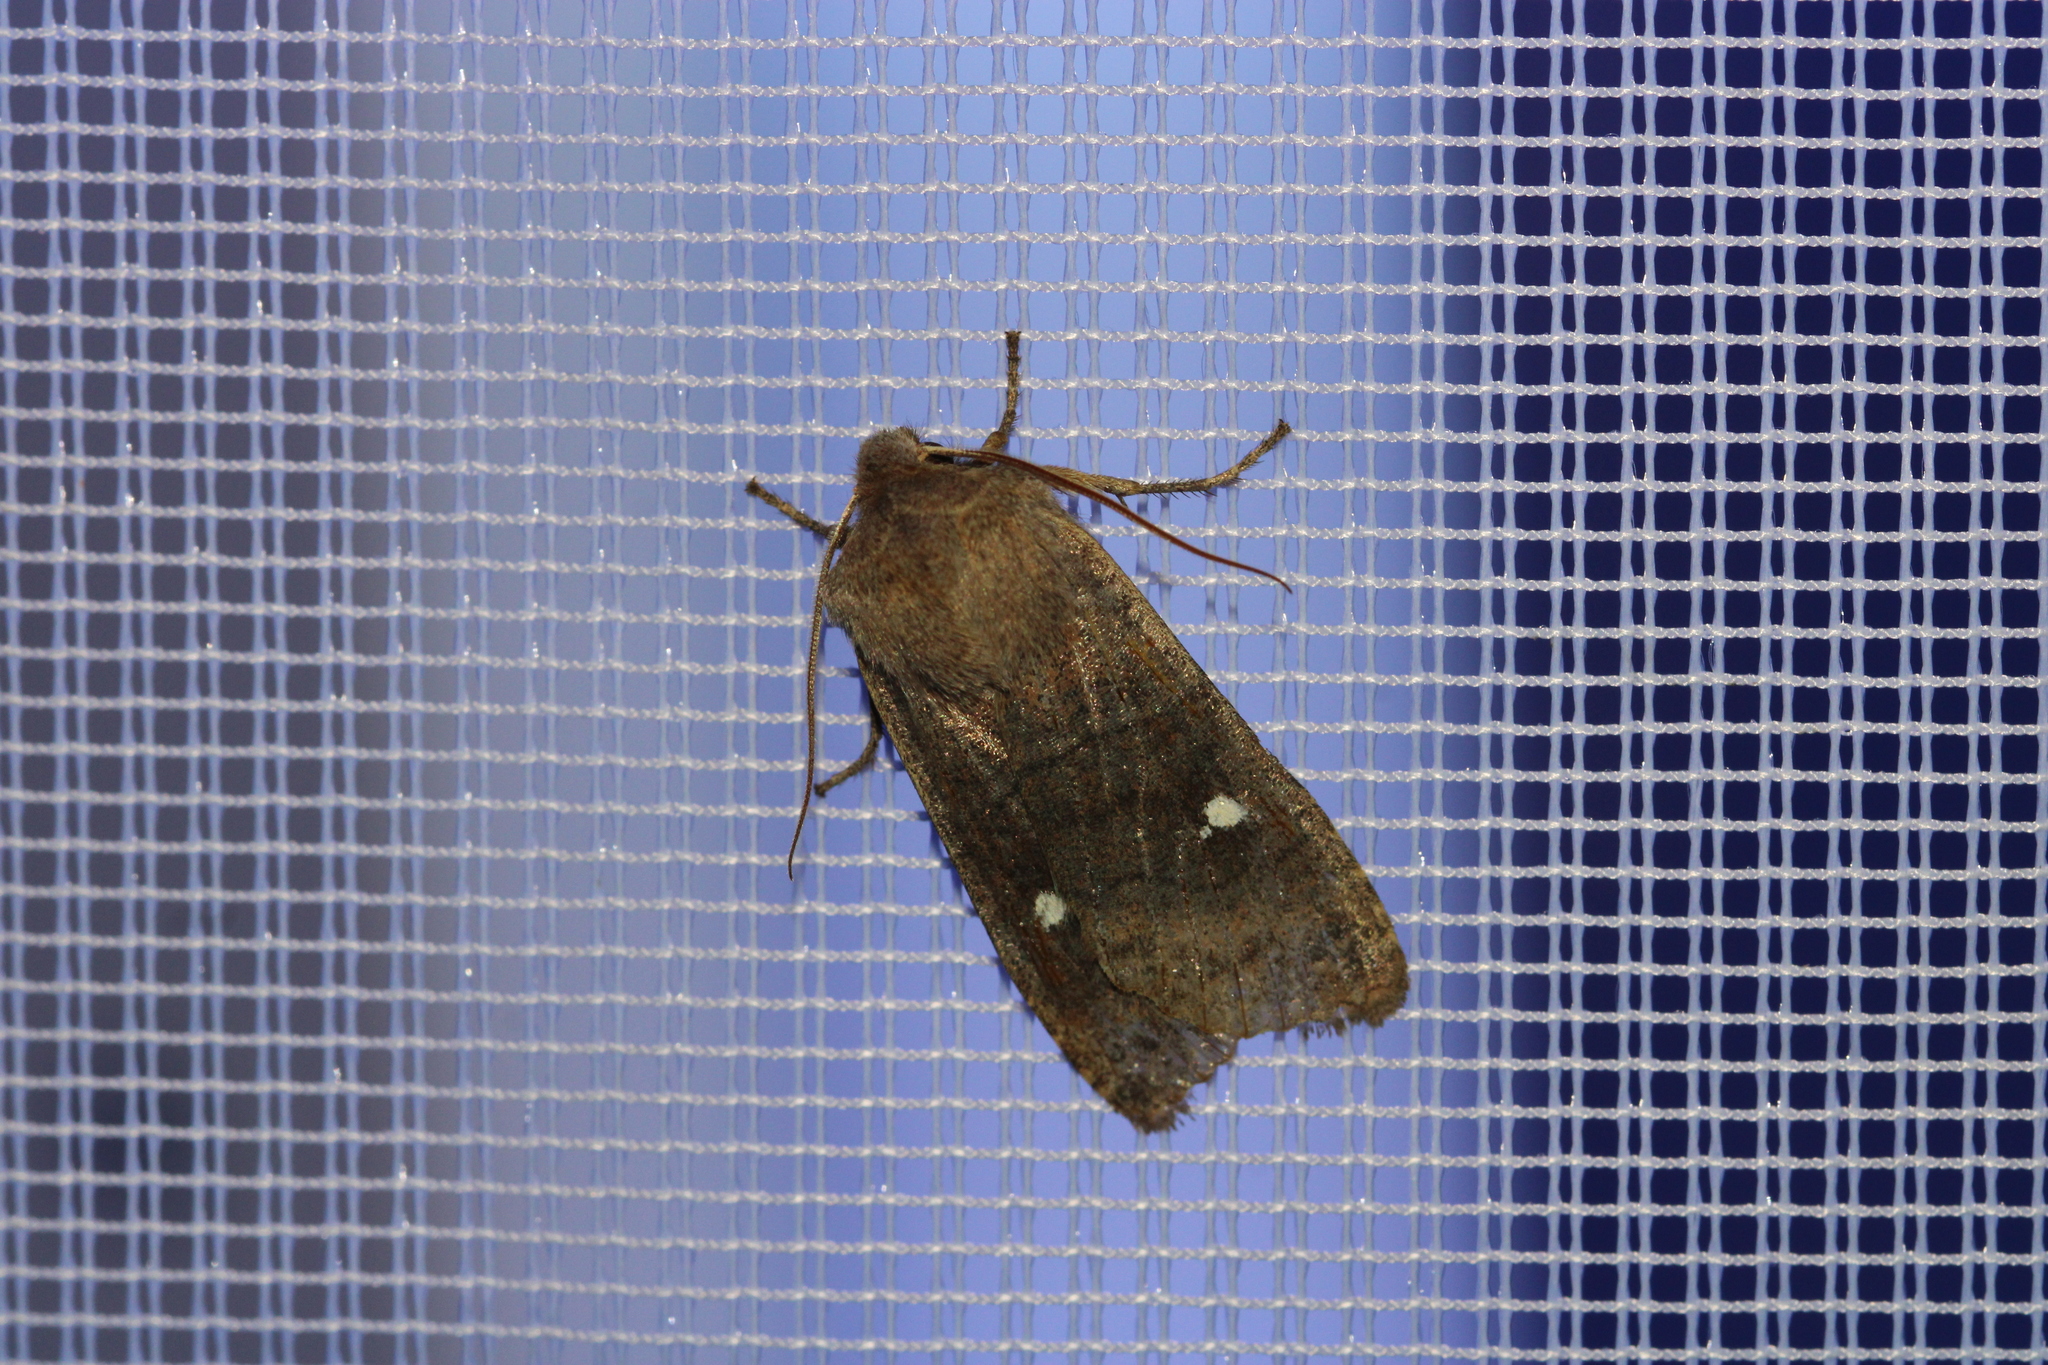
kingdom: Animalia
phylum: Arthropoda
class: Insecta
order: Lepidoptera
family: Noctuidae
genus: Eupsilia
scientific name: Eupsilia transversa
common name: Satellite
